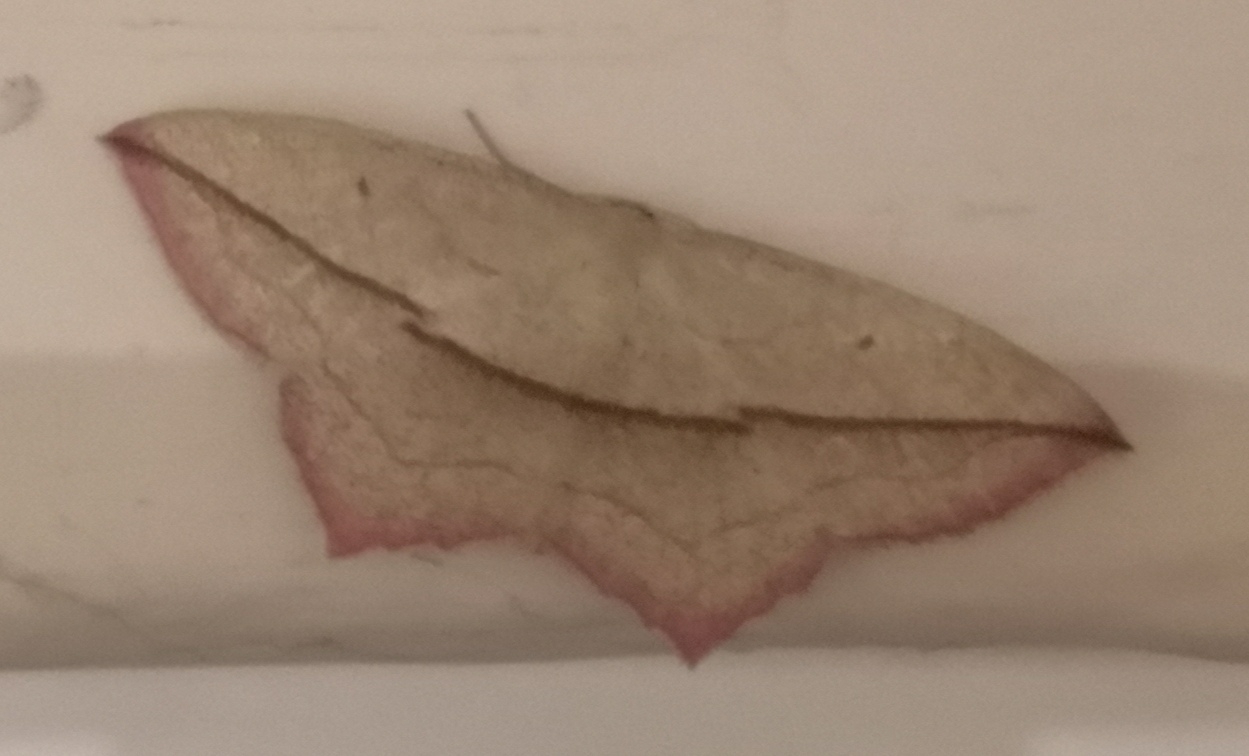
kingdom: Animalia
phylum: Arthropoda
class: Insecta
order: Lepidoptera
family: Geometridae
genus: Timandra
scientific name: Timandra comae
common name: Blood-vein
